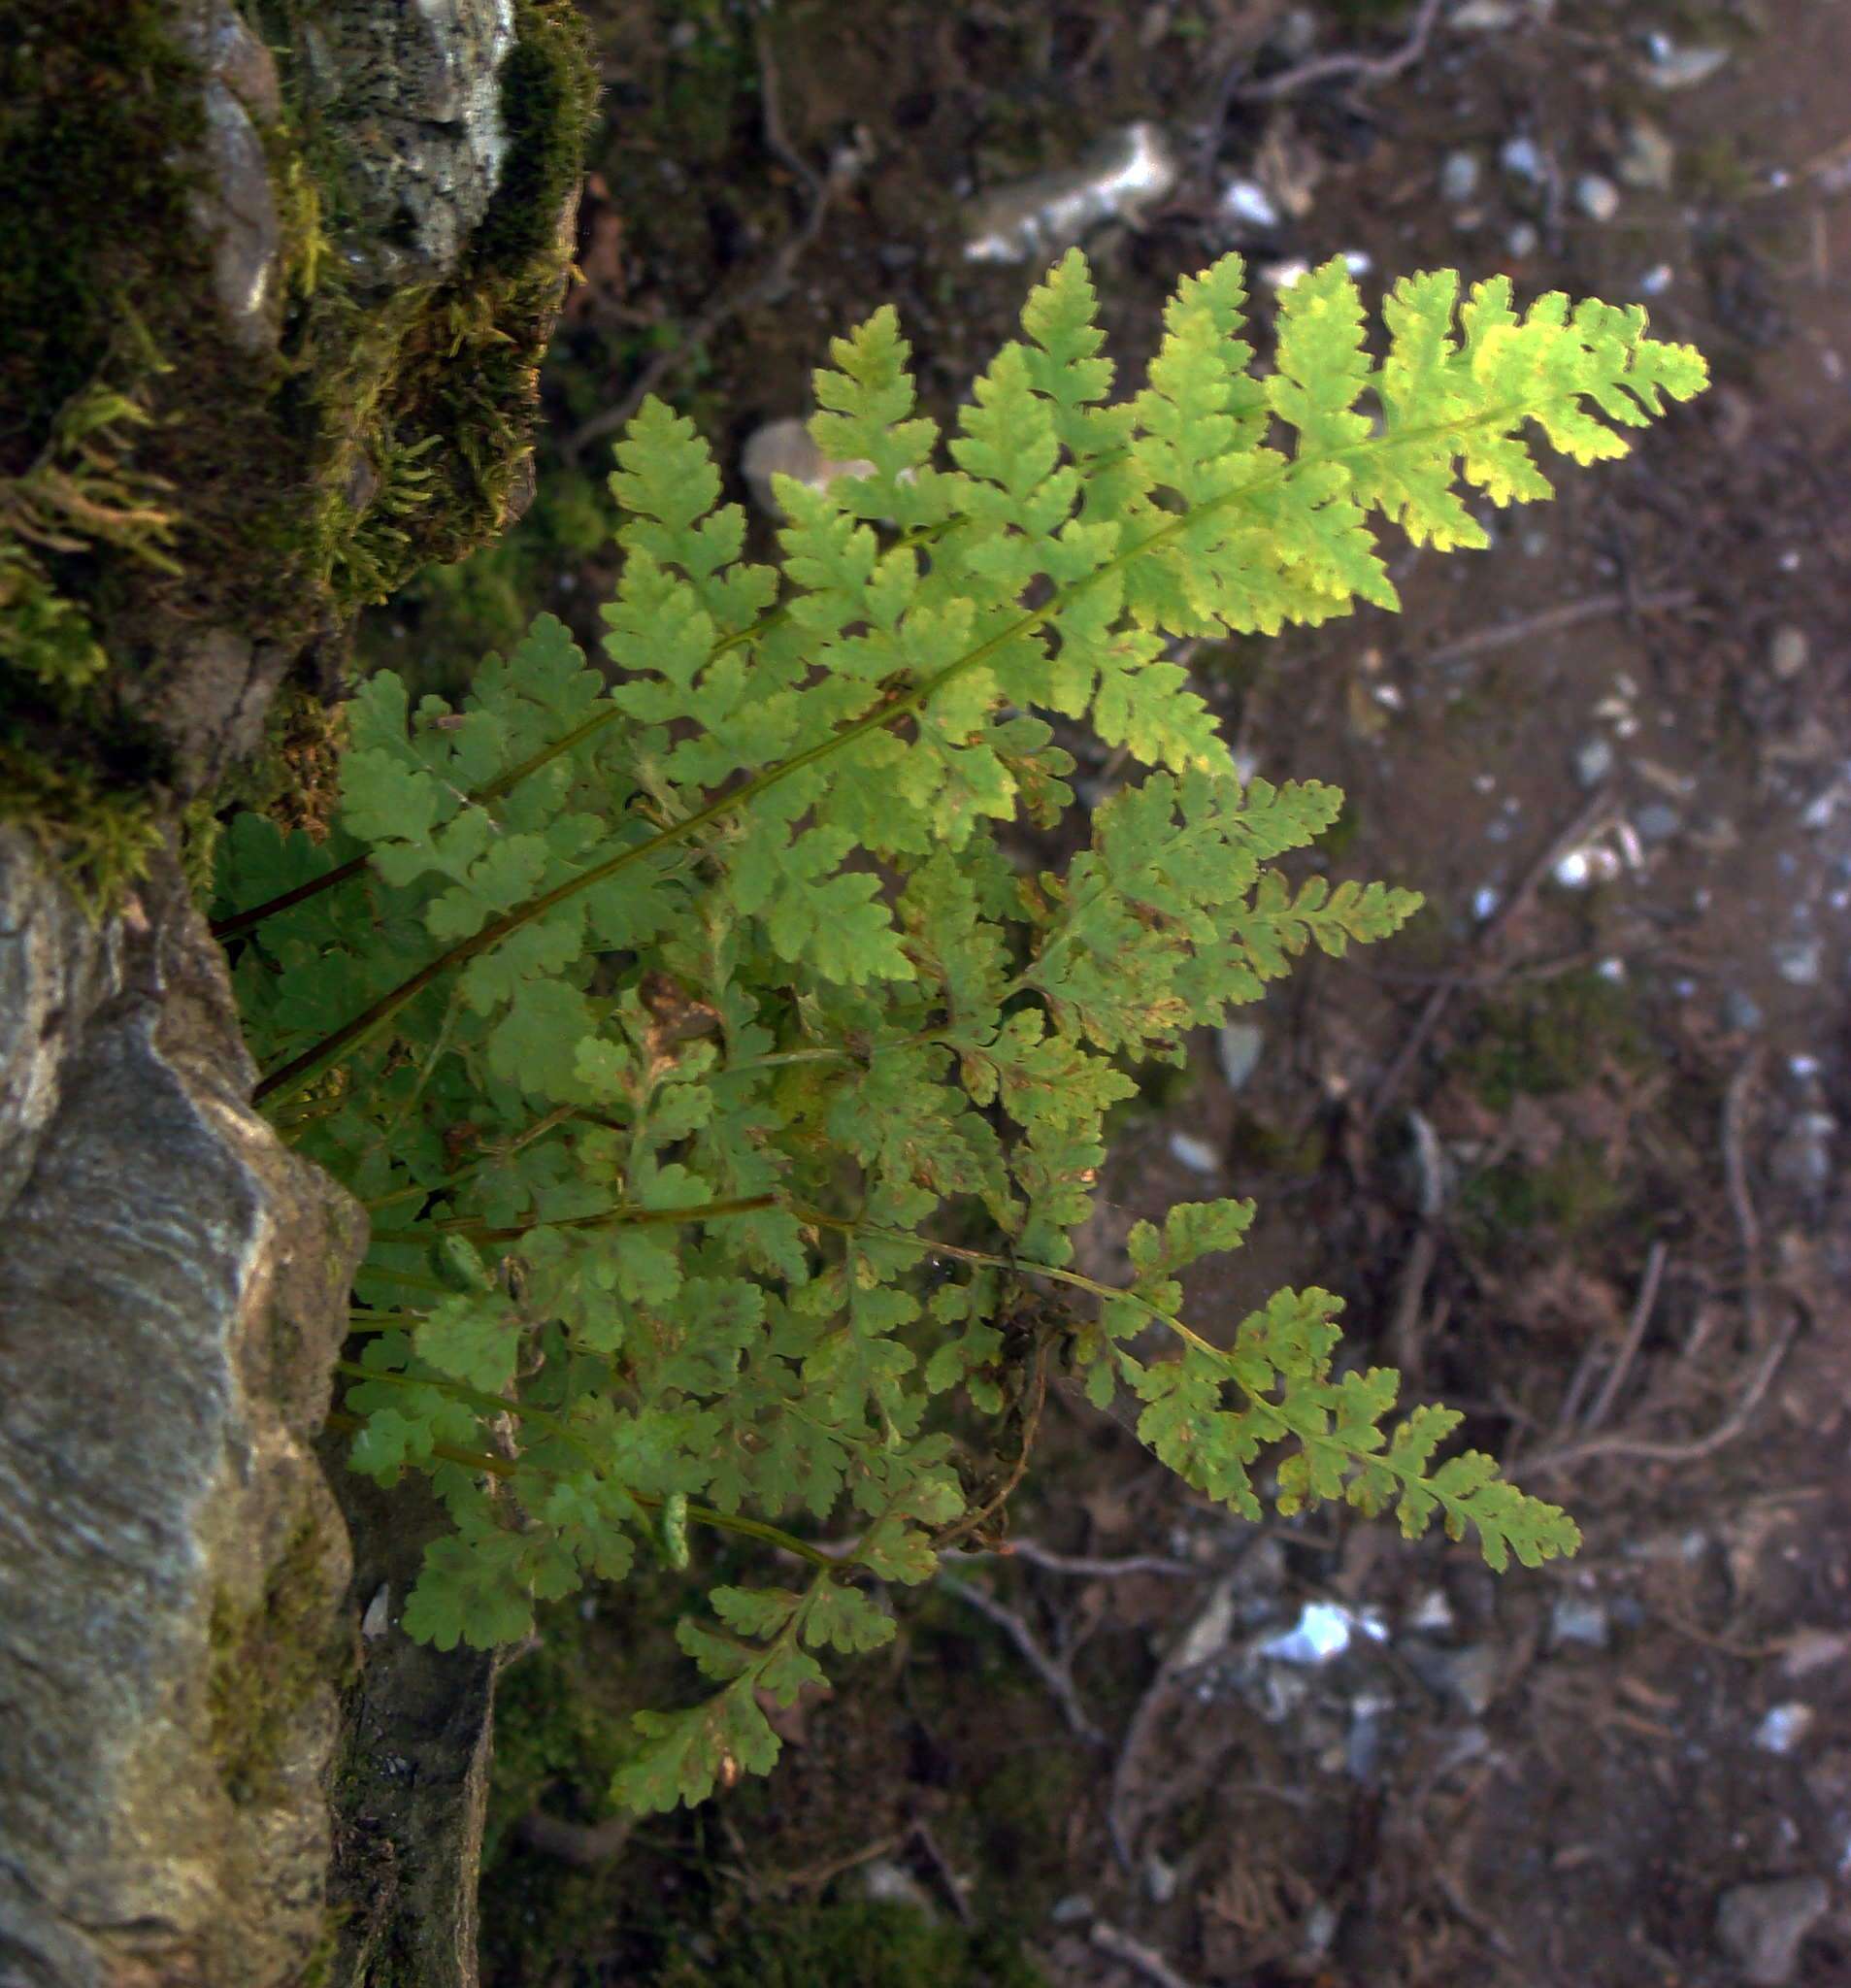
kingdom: Plantae
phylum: Tracheophyta
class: Polypodiopsida
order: Polypodiales
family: Cystopteridaceae
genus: Cystopteris
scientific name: Cystopteris fragilis
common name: Brittle bladder fern
